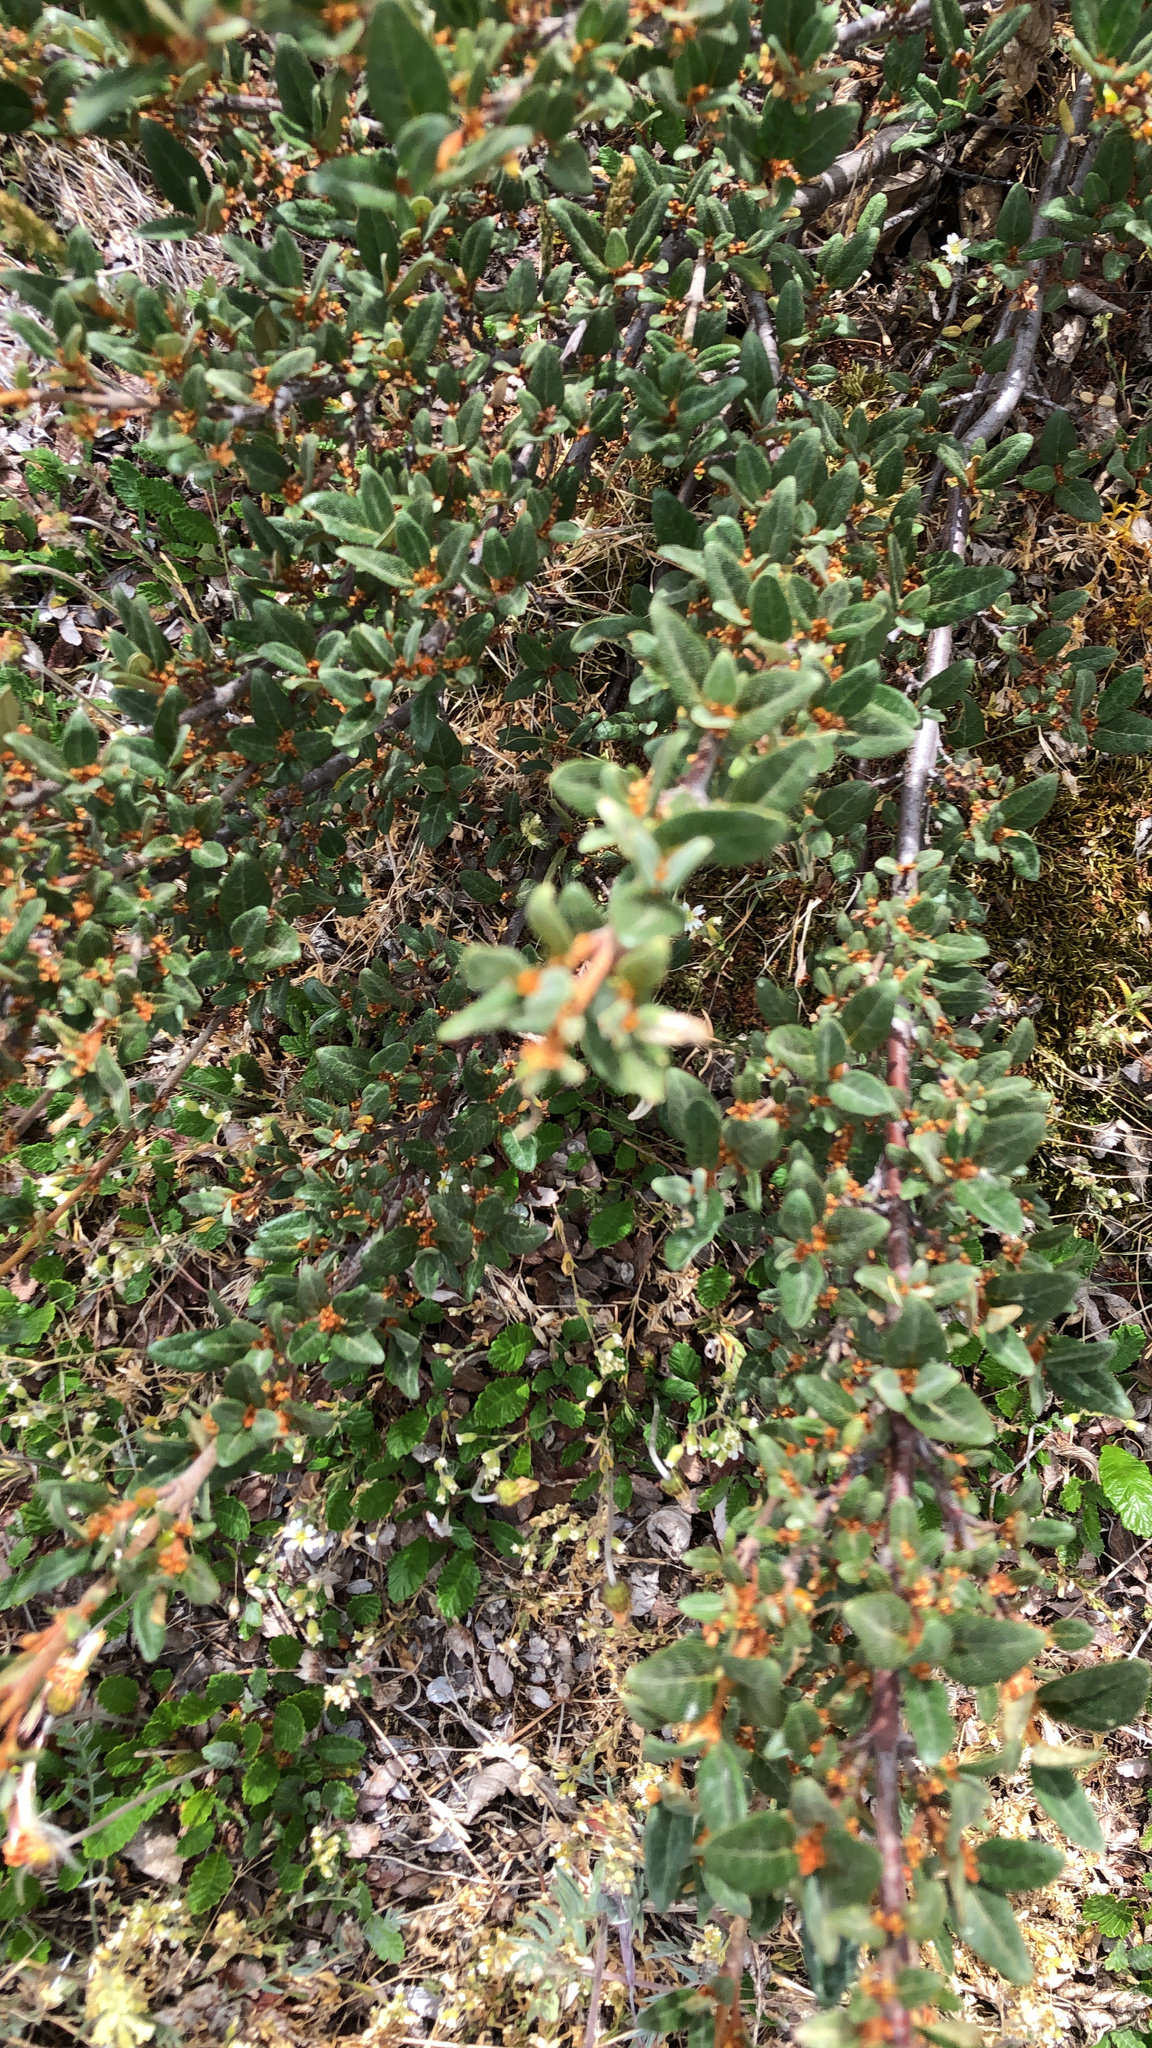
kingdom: Plantae
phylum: Tracheophyta
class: Magnoliopsida
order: Rosales
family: Elaeagnaceae
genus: Shepherdia
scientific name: Shepherdia canadensis
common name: Soapberry
